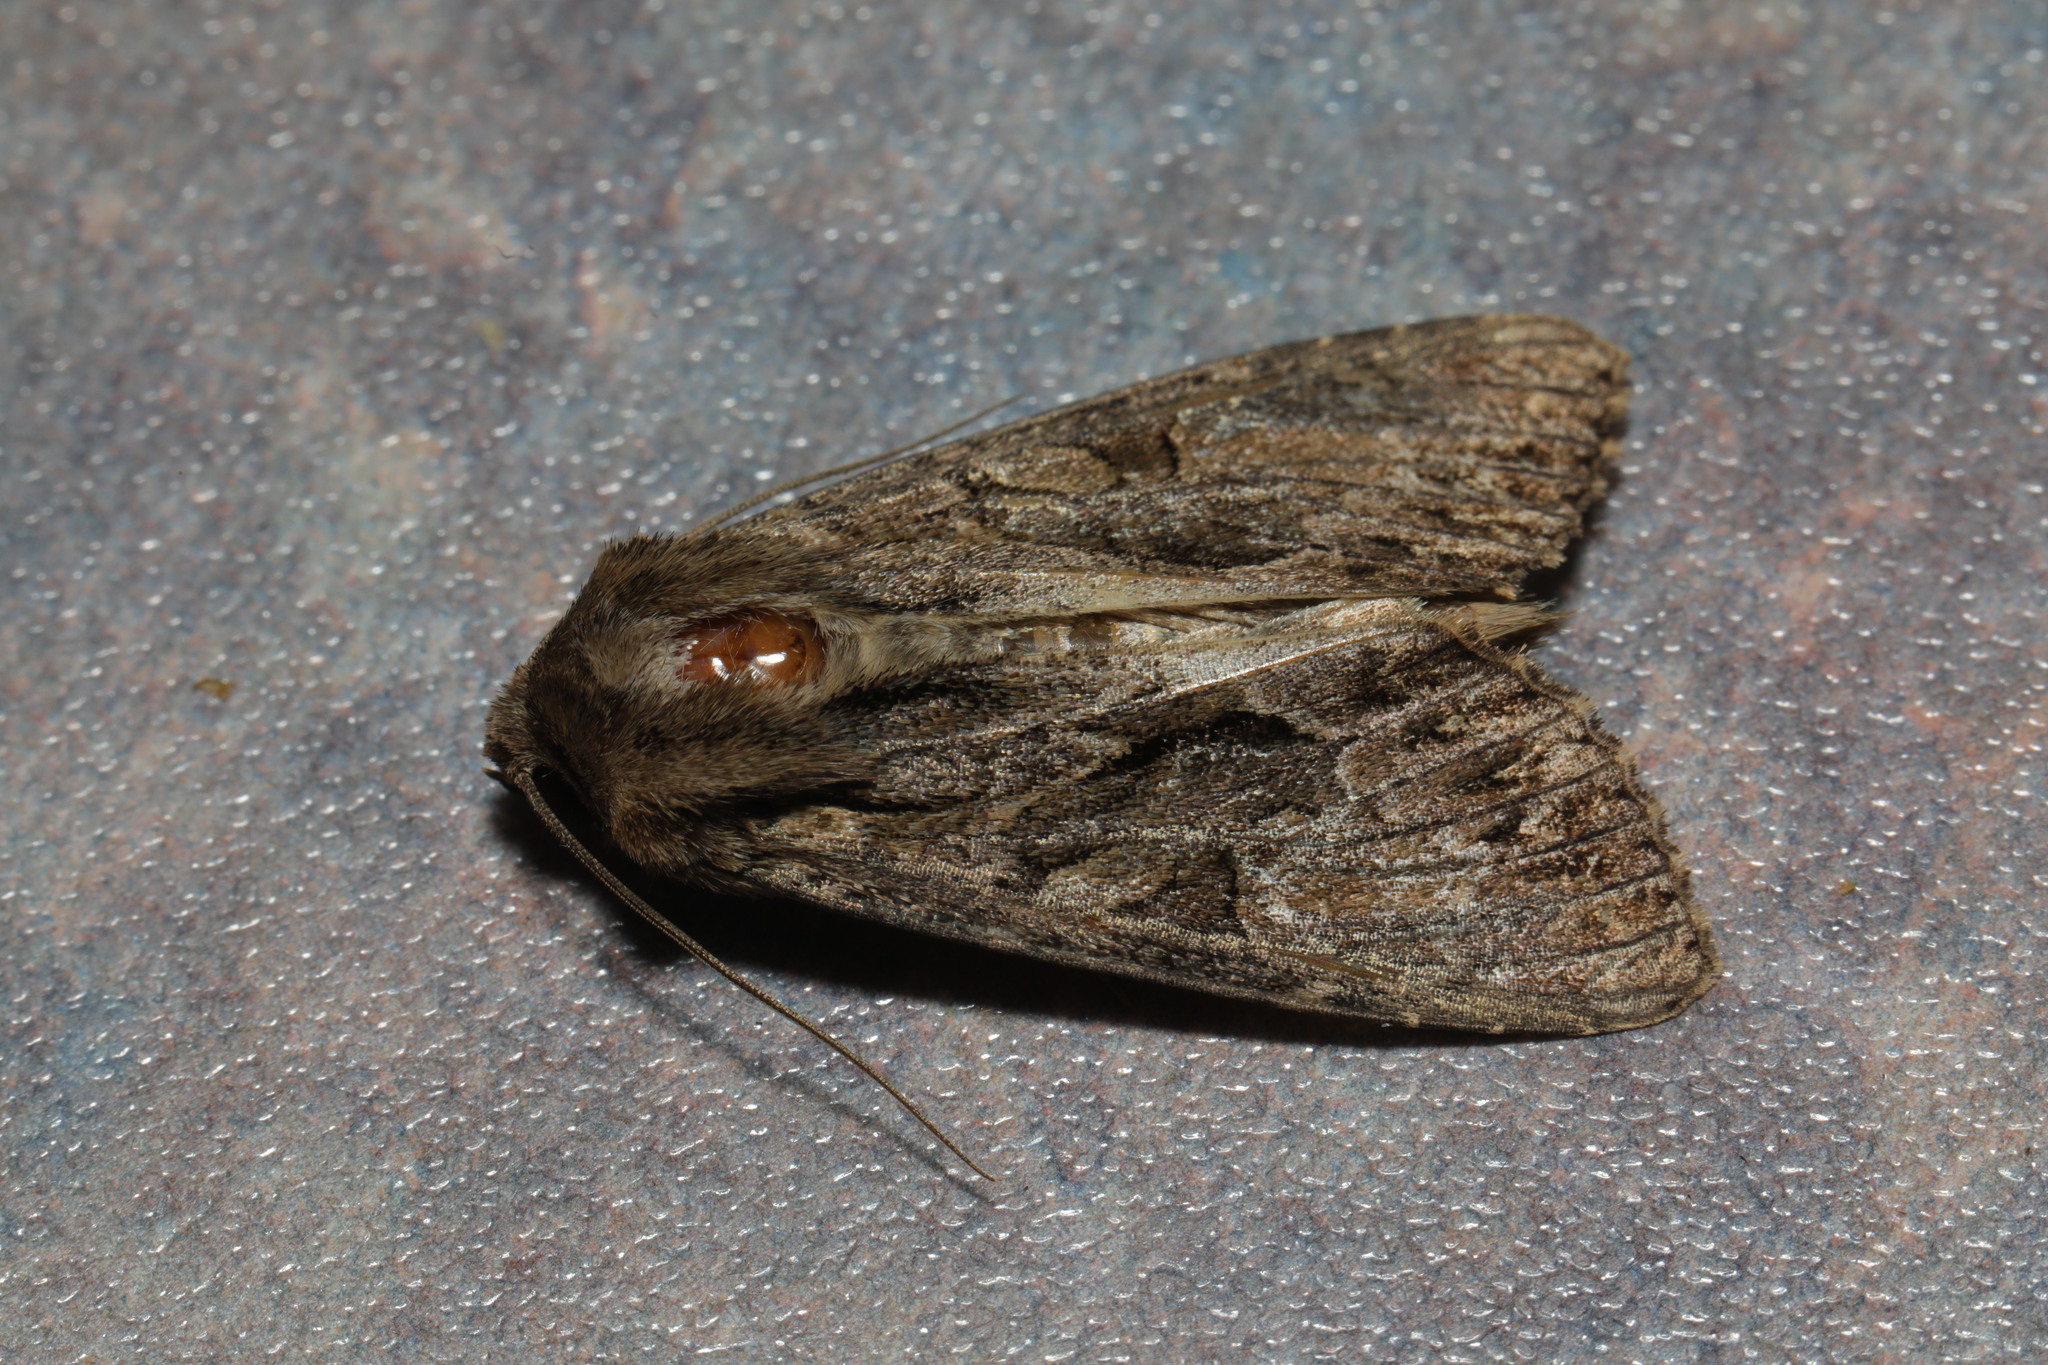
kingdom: Animalia
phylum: Arthropoda
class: Insecta
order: Lepidoptera
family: Noctuidae
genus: Apamea
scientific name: Apamea monoglypha
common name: Dark arches
